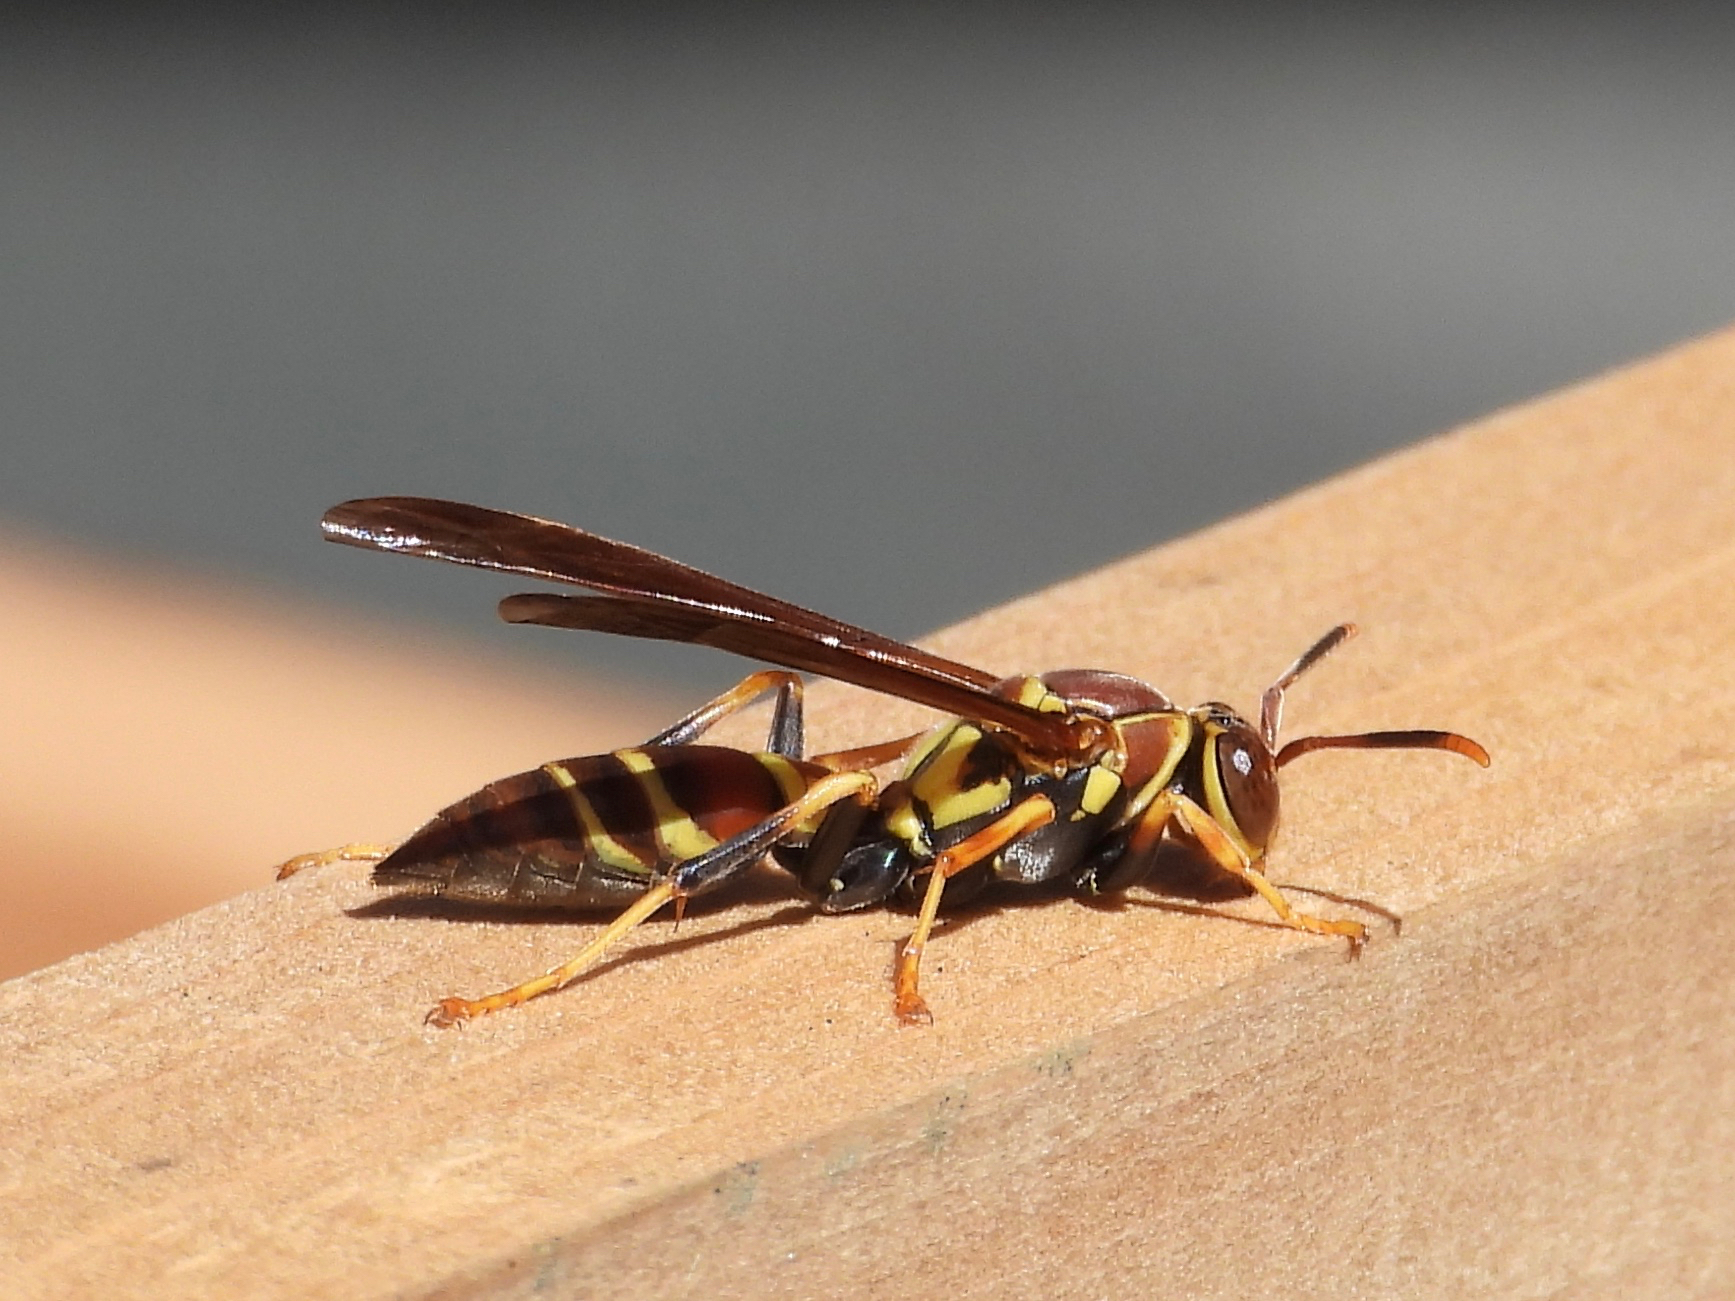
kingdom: Animalia
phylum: Arthropoda
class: Insecta
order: Hymenoptera
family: Eumenidae
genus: Polistes
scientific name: Polistes instabilis
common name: Unstable paper wasp
